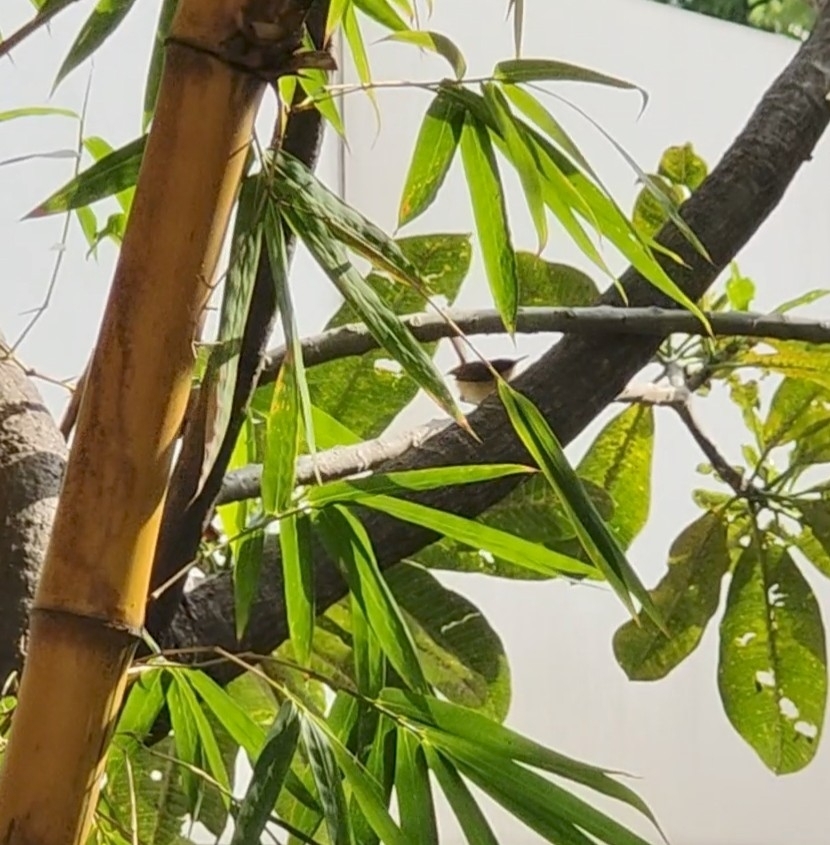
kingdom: Animalia
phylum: Chordata
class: Aves
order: Passeriformes
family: Cisticolidae
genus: Prinia
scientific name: Prinia socialis
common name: Ashy prinia
